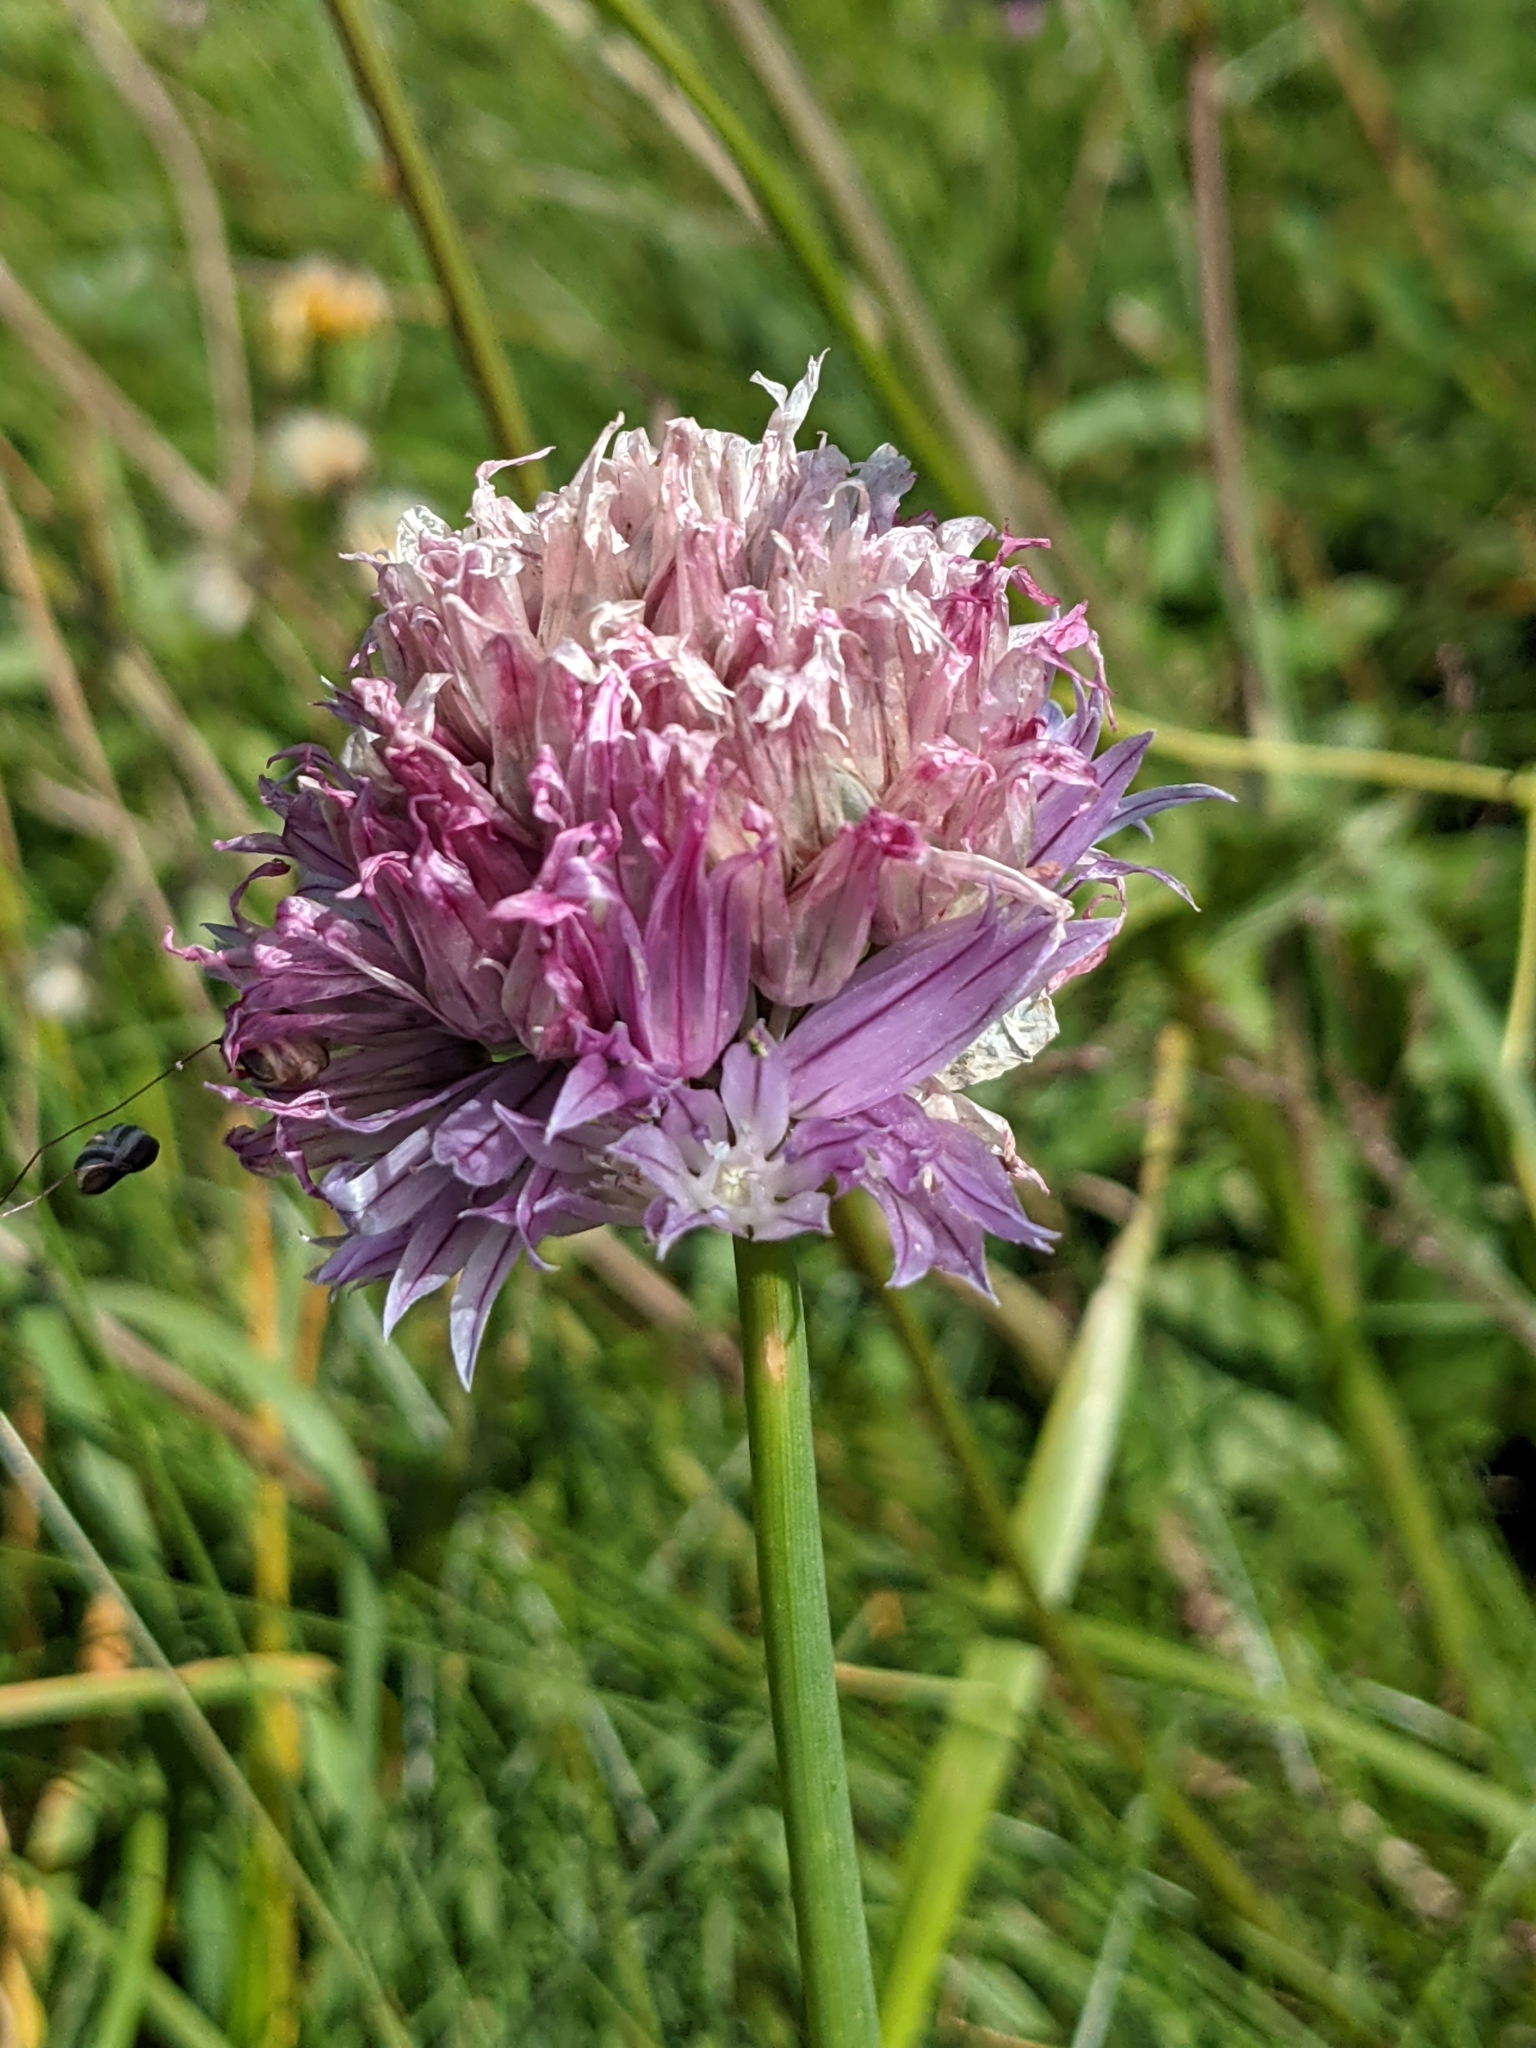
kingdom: Plantae
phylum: Tracheophyta
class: Liliopsida
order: Asparagales
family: Amaryllidaceae
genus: Allium
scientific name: Allium schoenoprasum
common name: Chives
